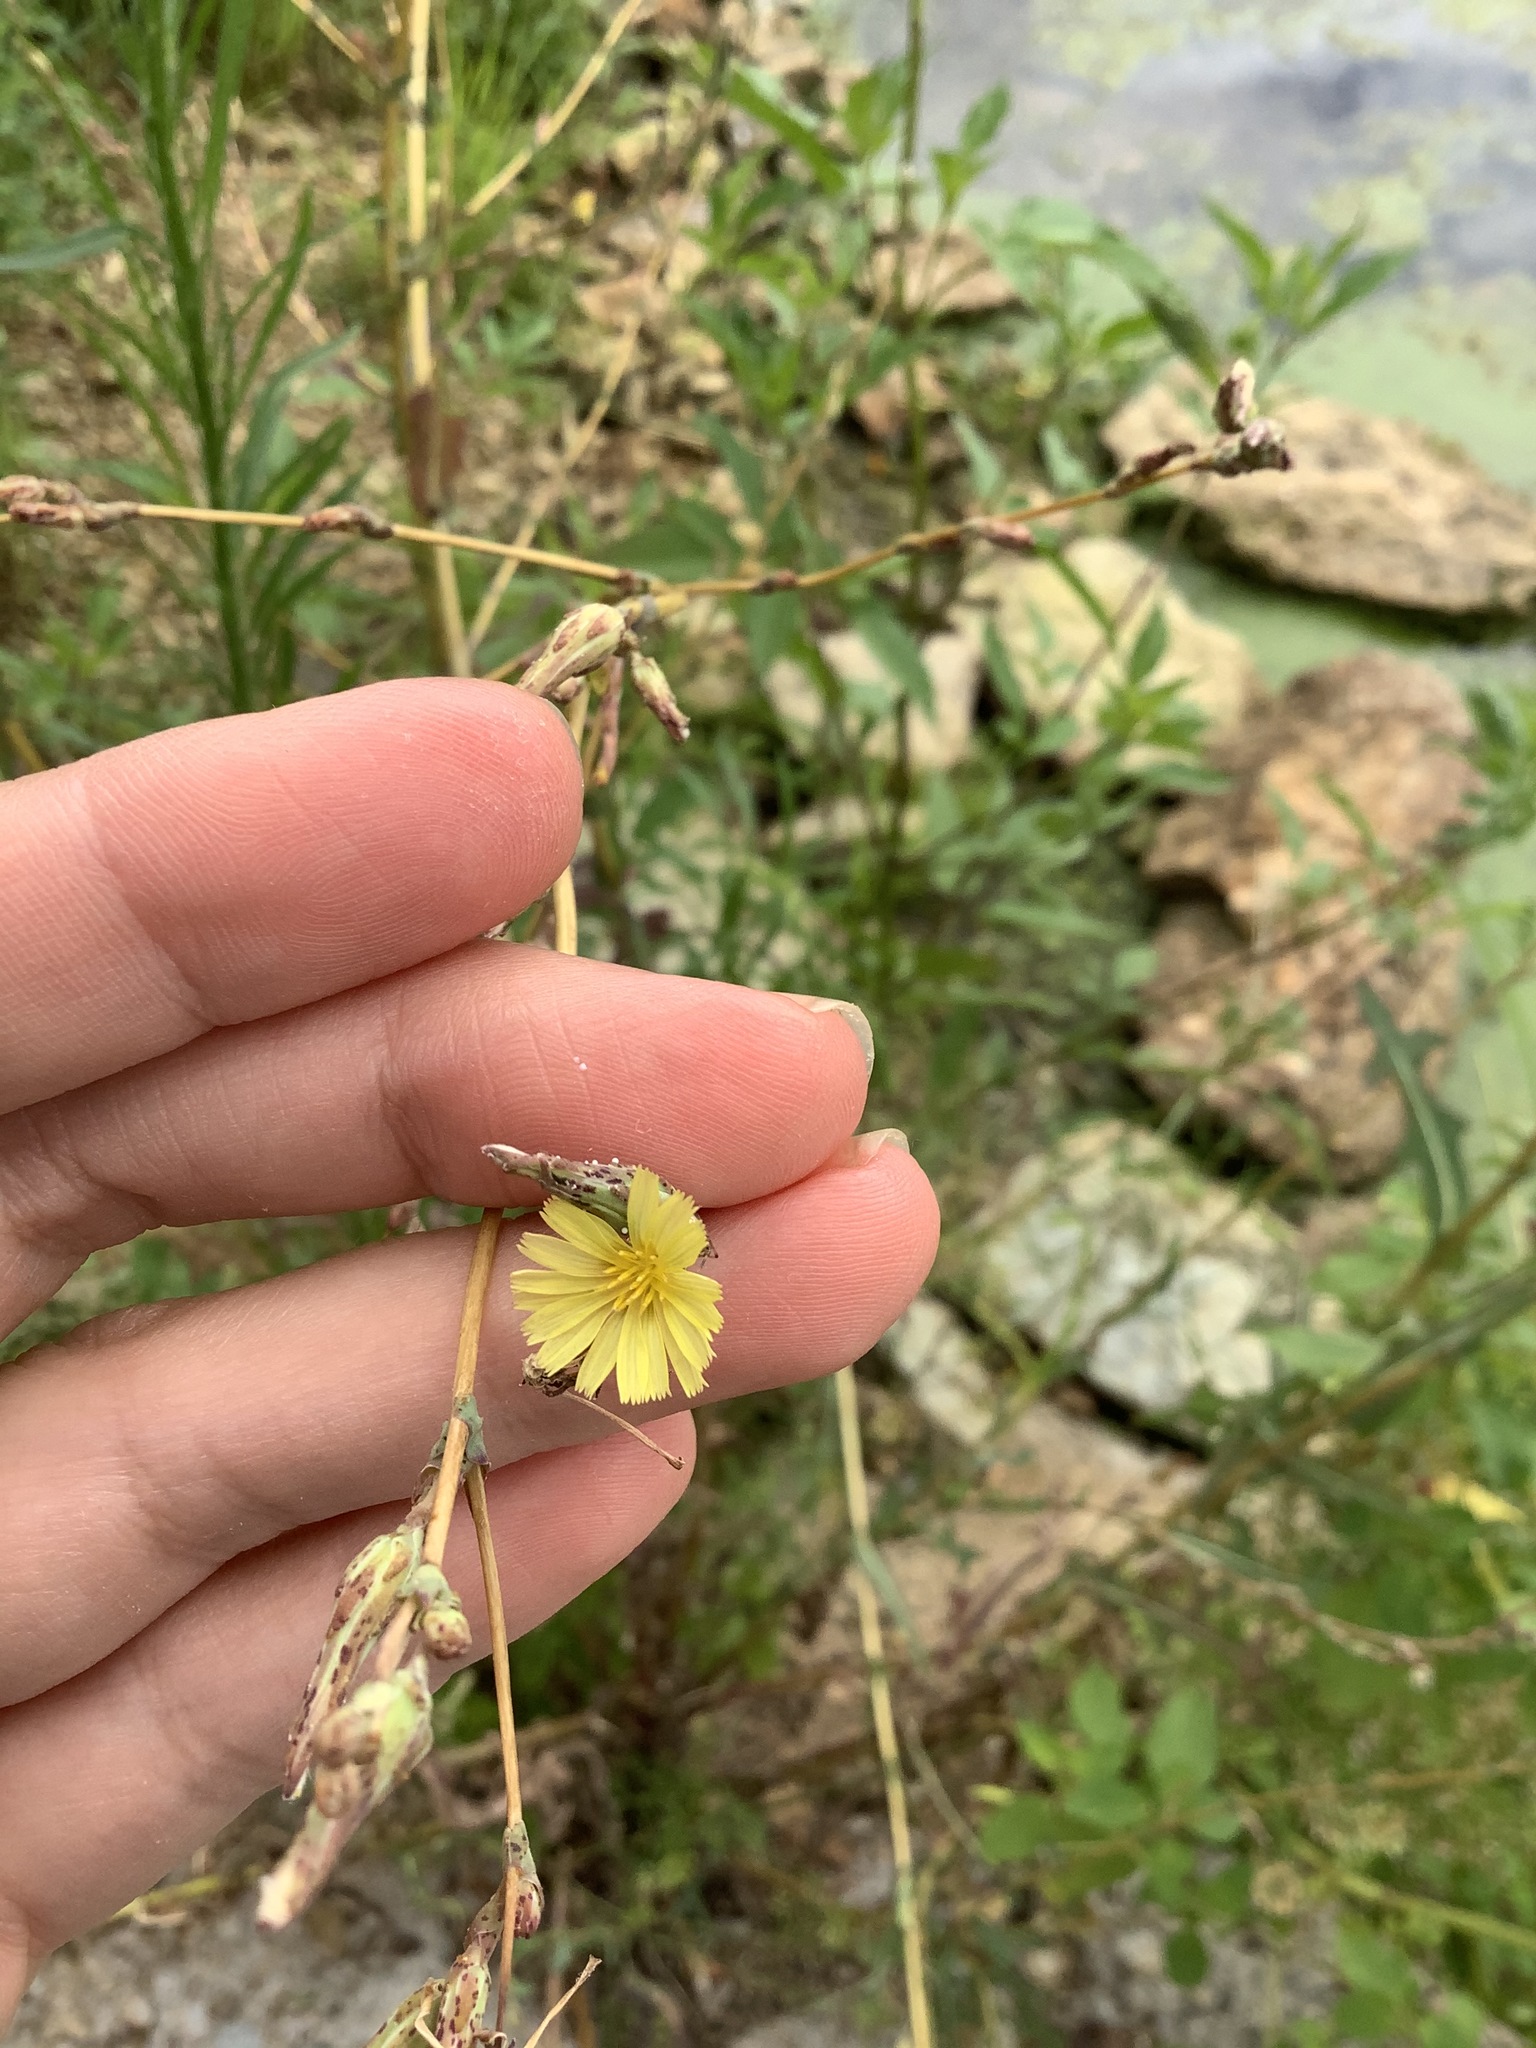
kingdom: Plantae
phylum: Tracheophyta
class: Magnoliopsida
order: Asterales
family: Asteraceae
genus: Lactuca
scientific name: Lactuca serriola
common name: Prickly lettuce
